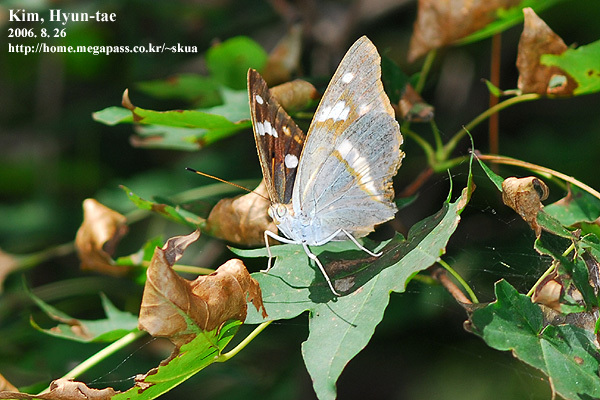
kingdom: Animalia
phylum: Arthropoda
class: Insecta
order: Lepidoptera
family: Nymphalidae
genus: Apatura
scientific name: Apatura ulupi
